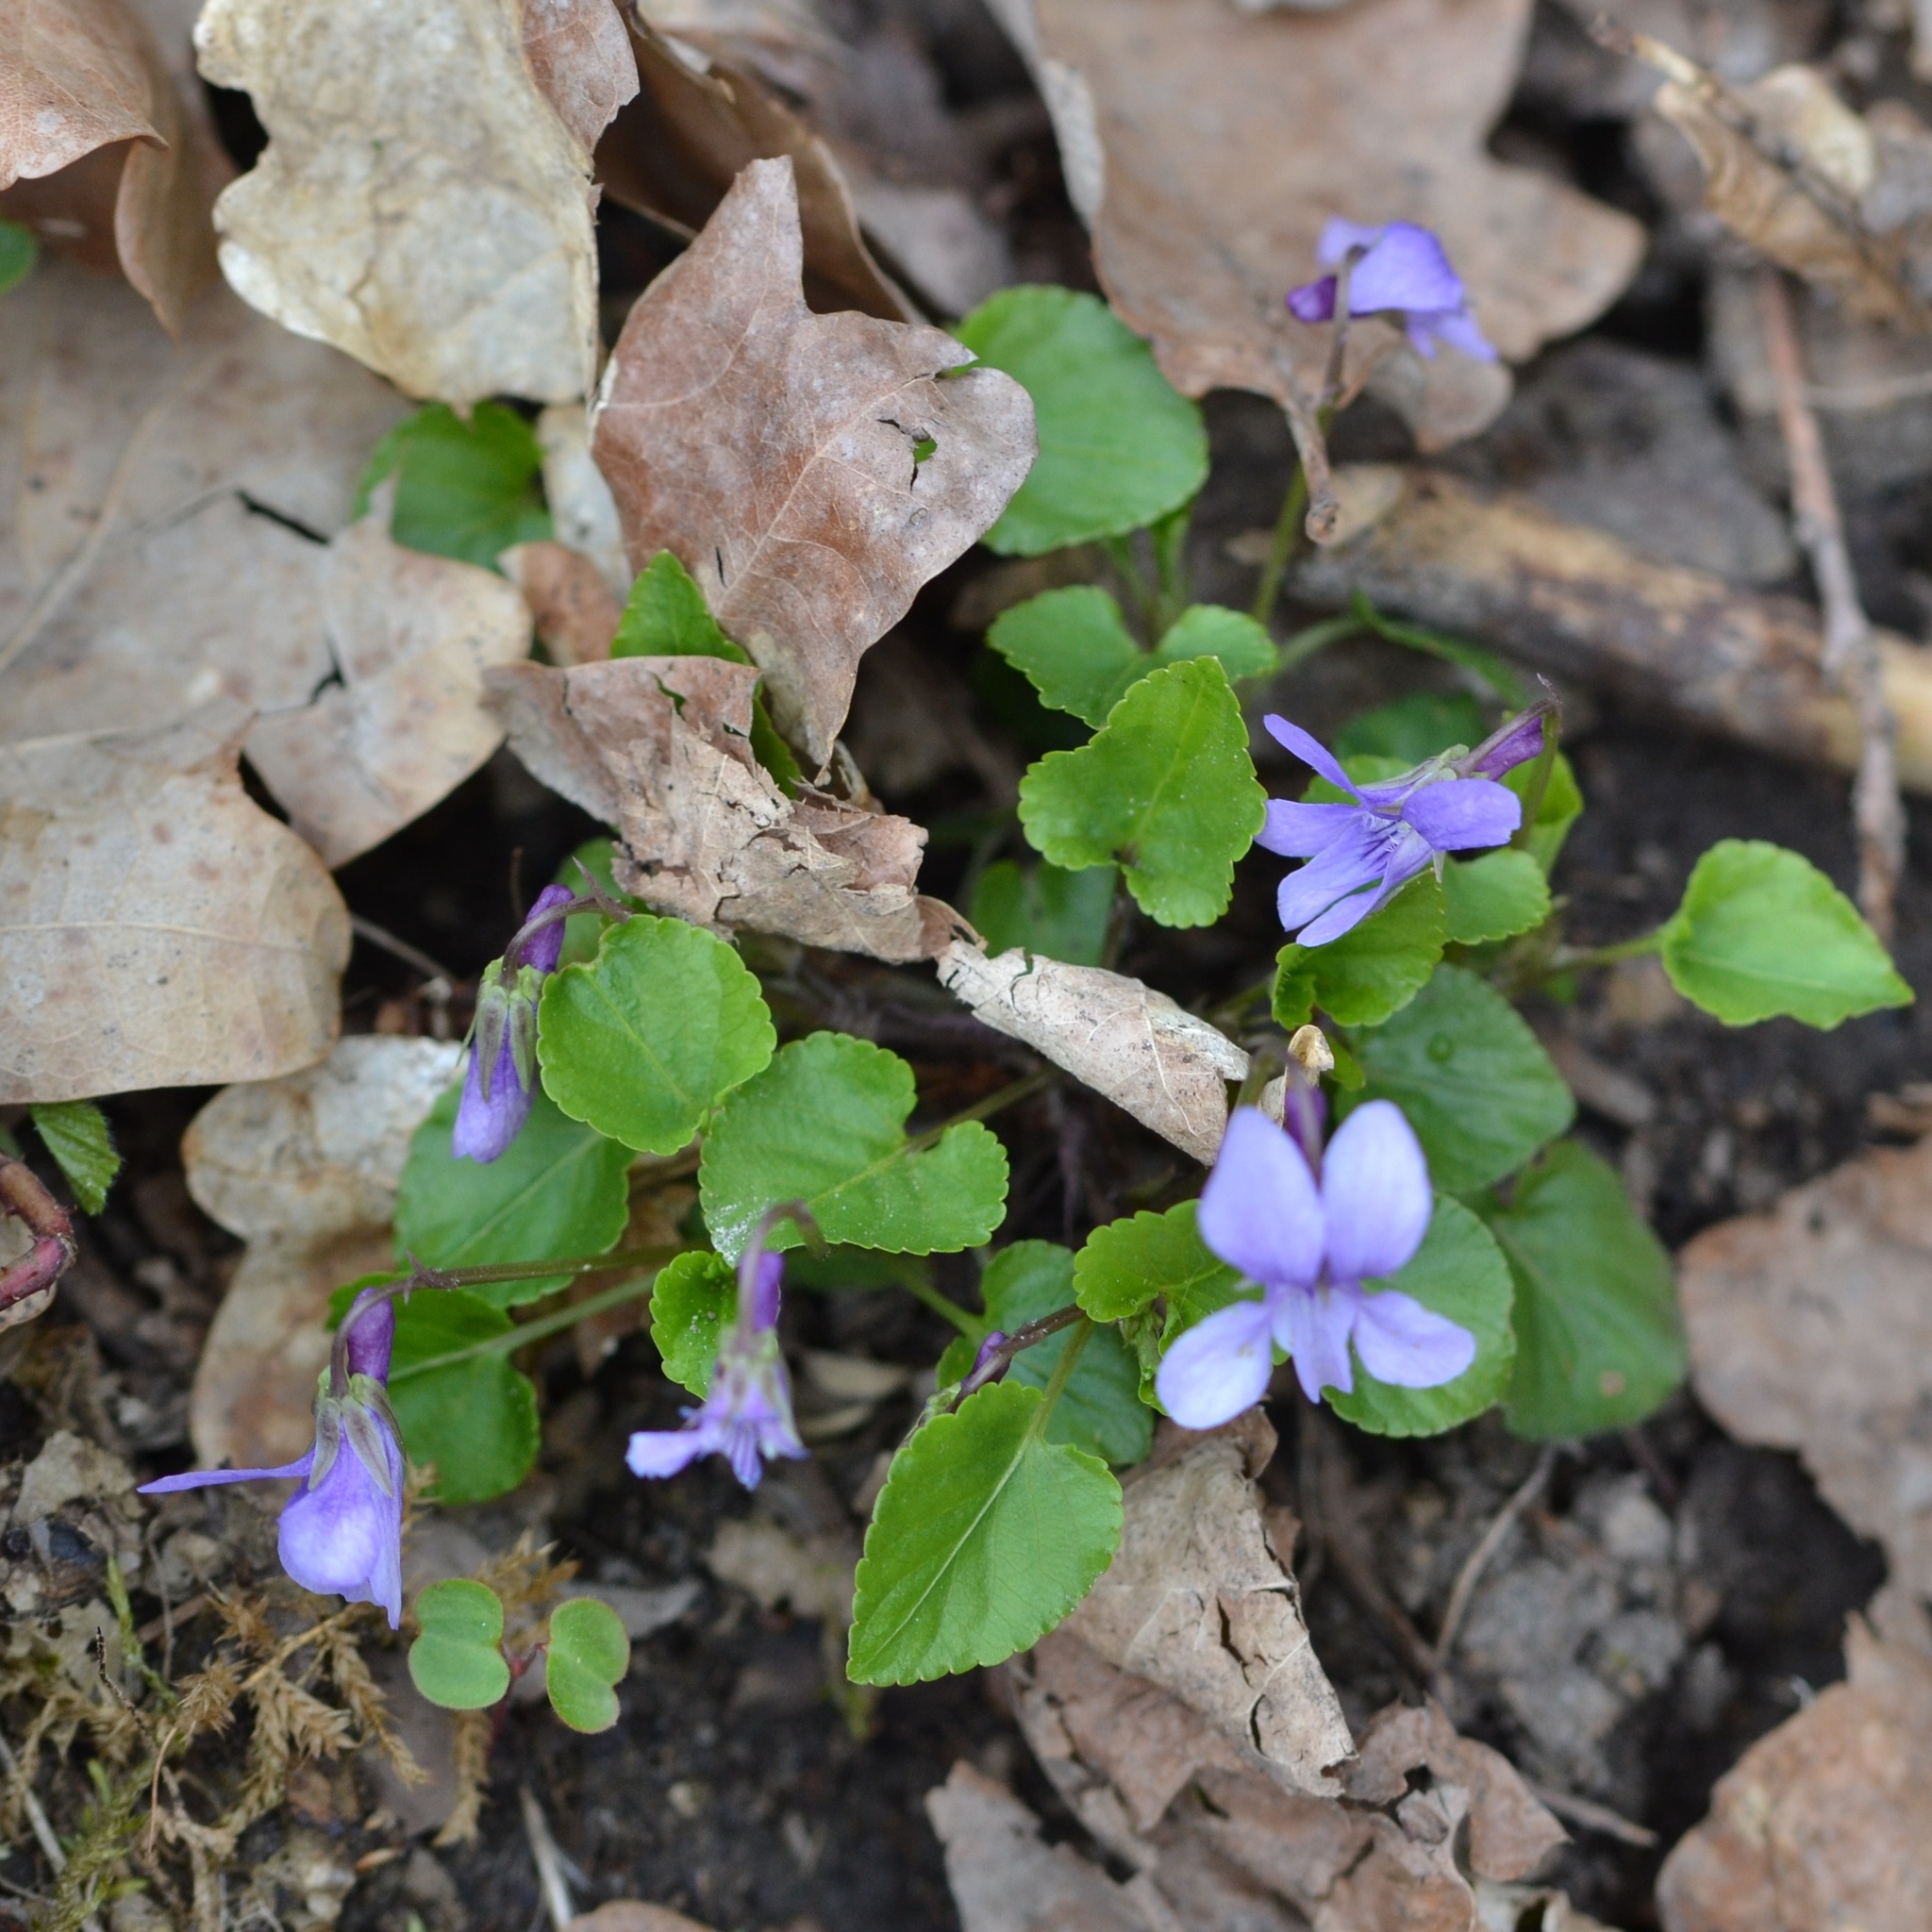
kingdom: Plantae
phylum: Tracheophyta
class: Magnoliopsida
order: Malpighiales
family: Violaceae
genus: Viola
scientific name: Viola reichenbachiana
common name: Early dog-violet
